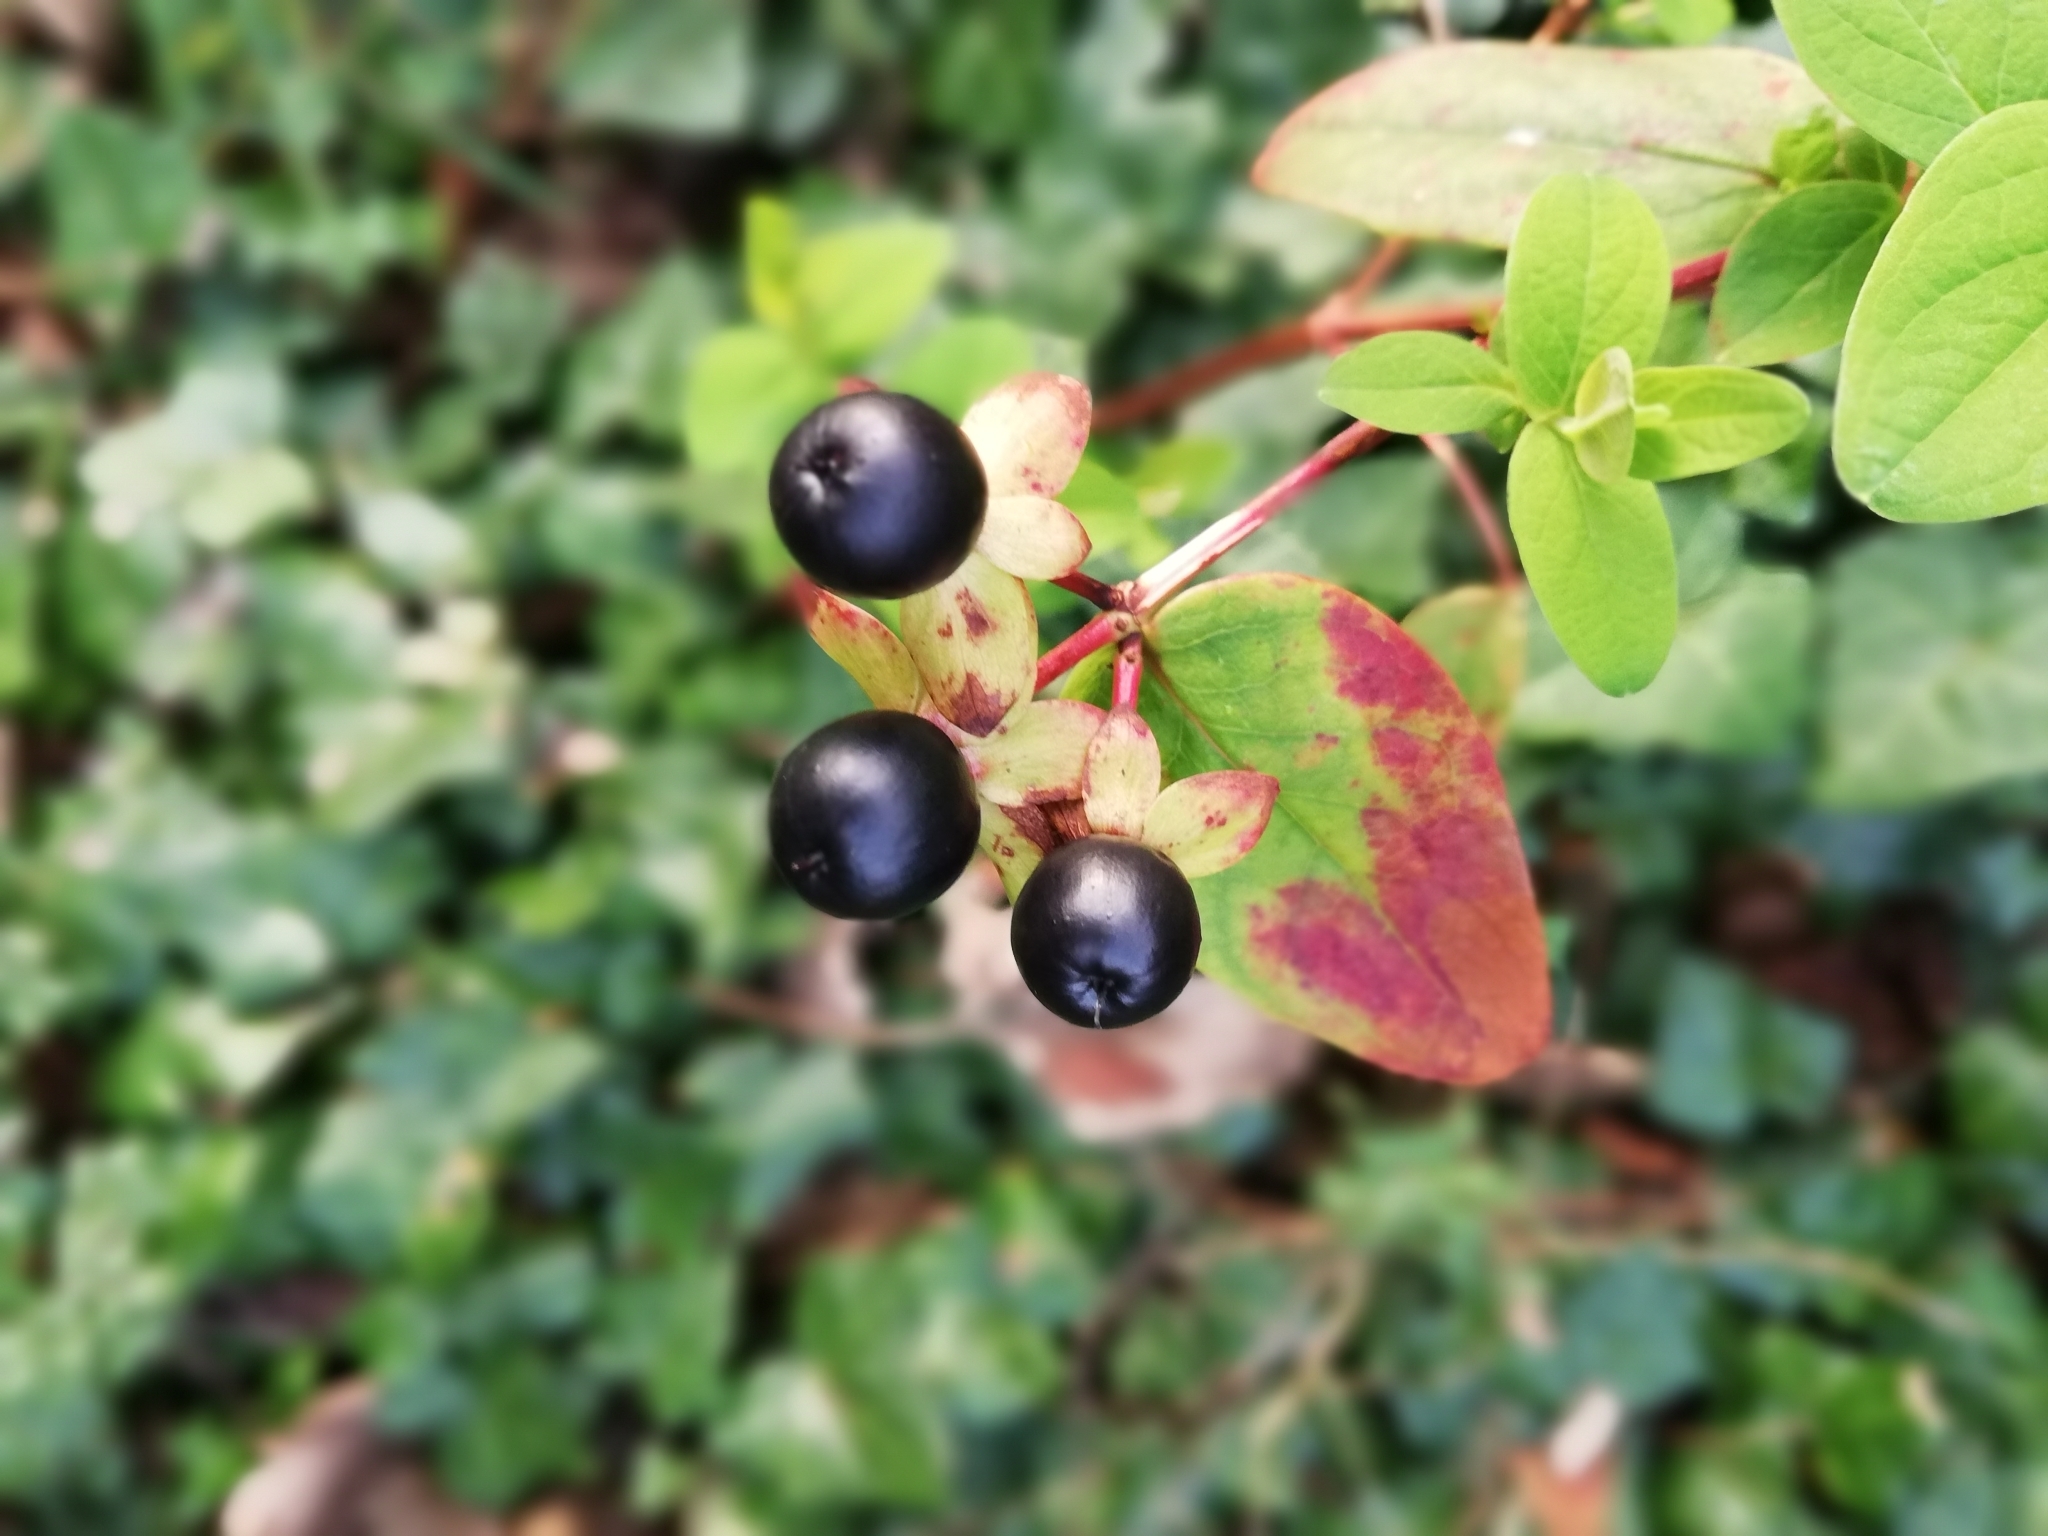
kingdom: Plantae
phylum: Tracheophyta
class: Magnoliopsida
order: Malpighiales
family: Hypericaceae
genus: Hypericum
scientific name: Hypericum androsaemum
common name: Sweet-amber
